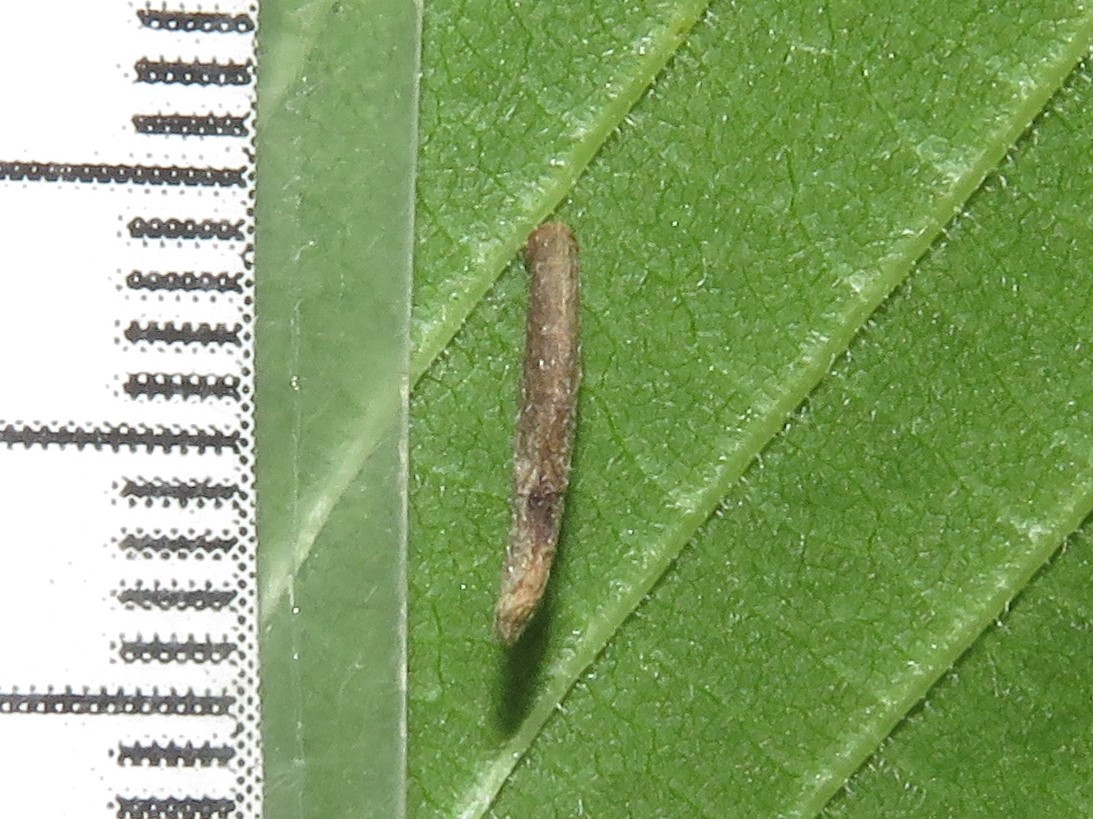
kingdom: Animalia
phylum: Arthropoda
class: Insecta
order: Lepidoptera
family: Coleophoridae
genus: Coleophora
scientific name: Coleophora limosipennella
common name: Dark elm case-bearer
